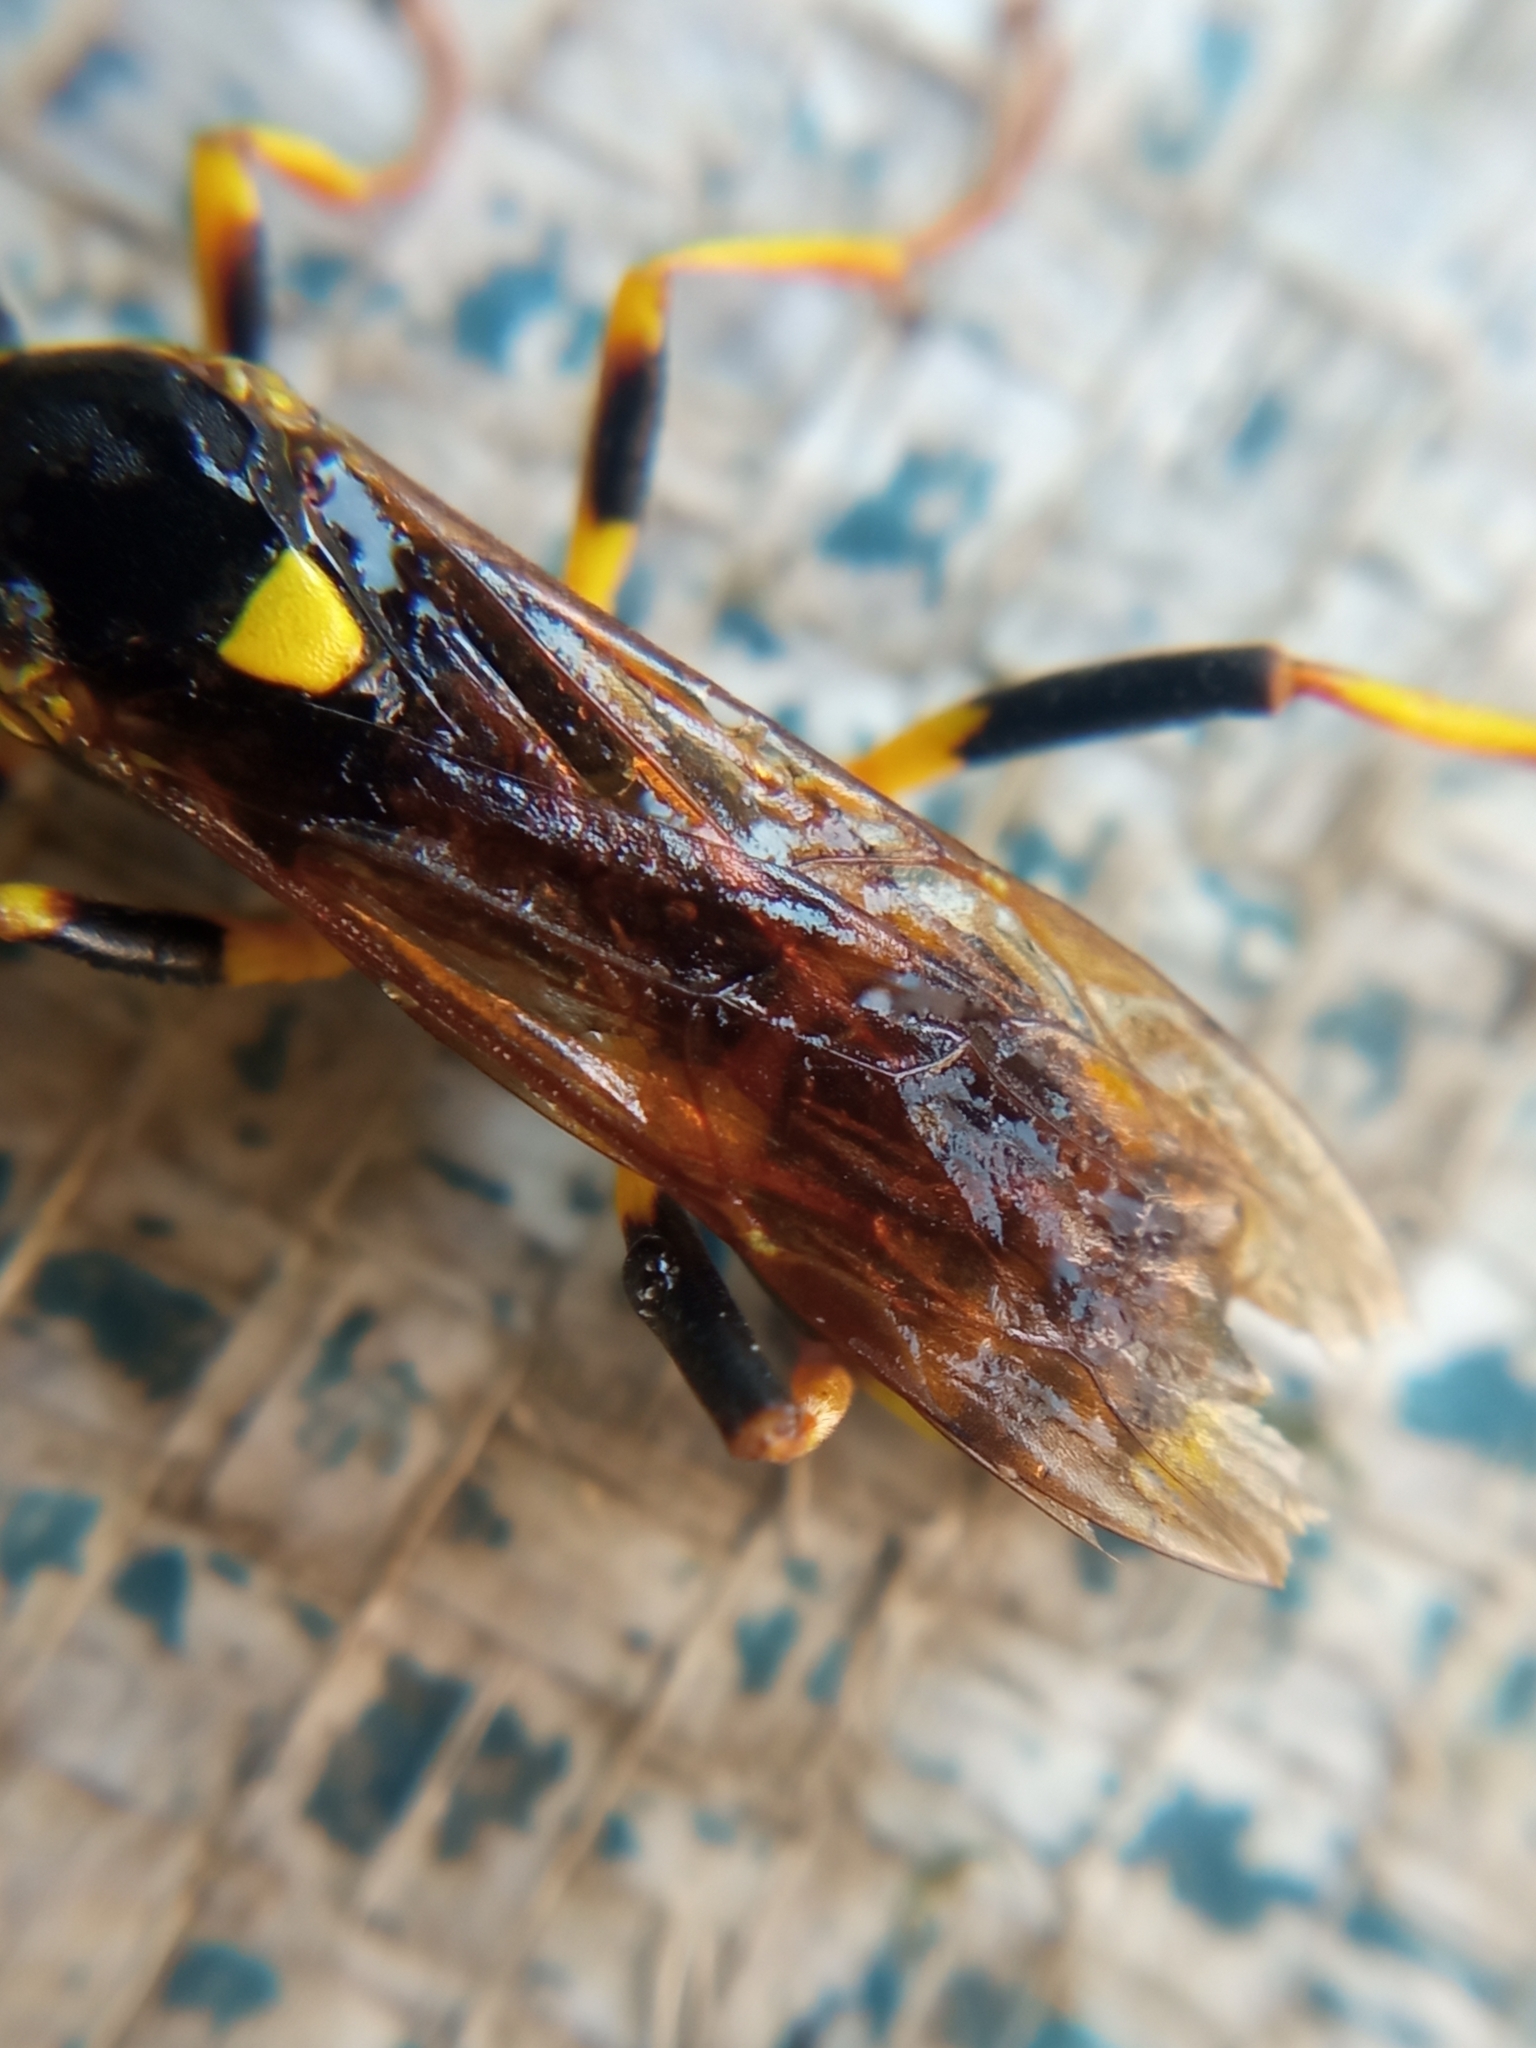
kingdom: Animalia
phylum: Arthropoda
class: Insecta
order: Hymenoptera
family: Ichneumonidae
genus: Amblyteles
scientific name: Amblyteles armatorius
